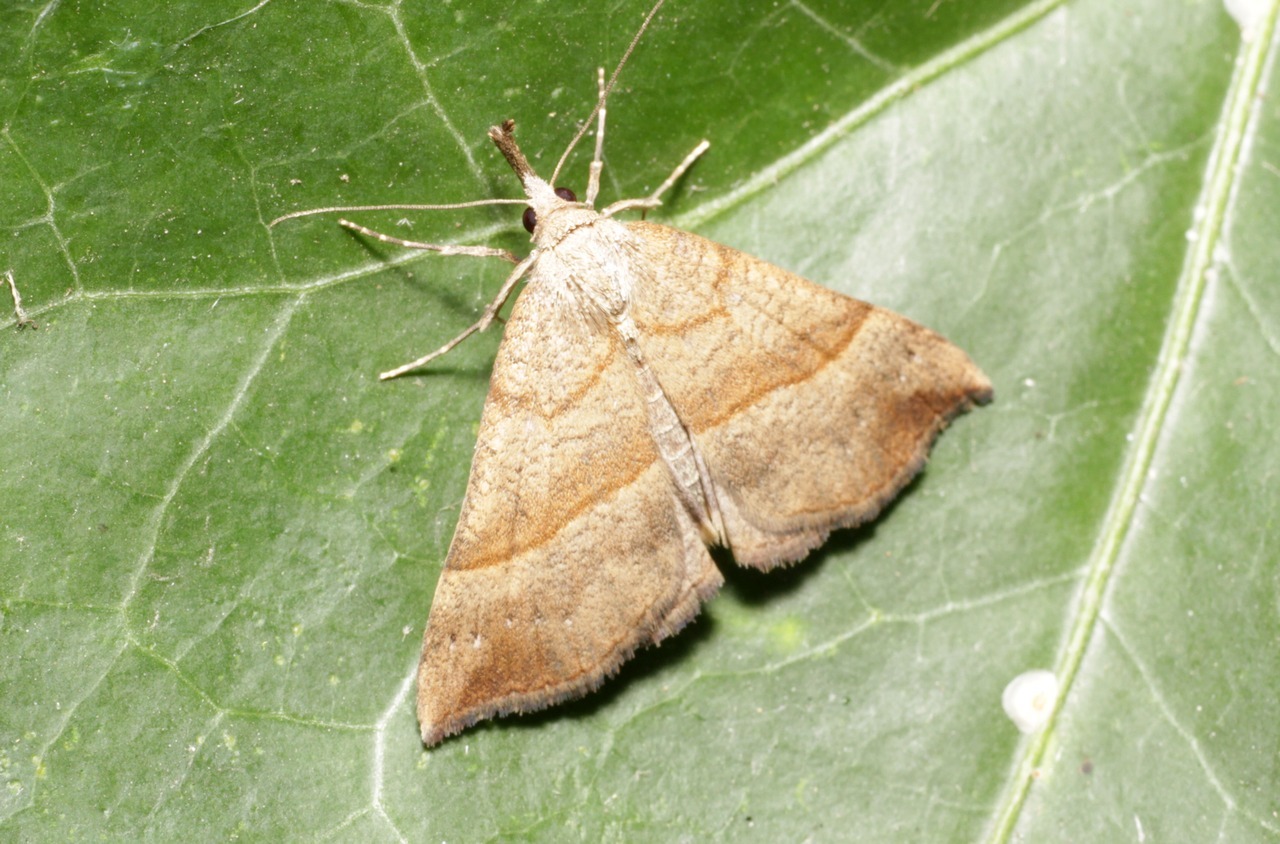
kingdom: Animalia
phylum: Arthropoda
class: Insecta
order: Lepidoptera
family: Erebidae
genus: Hypena
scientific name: Hypena proboscidalis
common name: Snout
